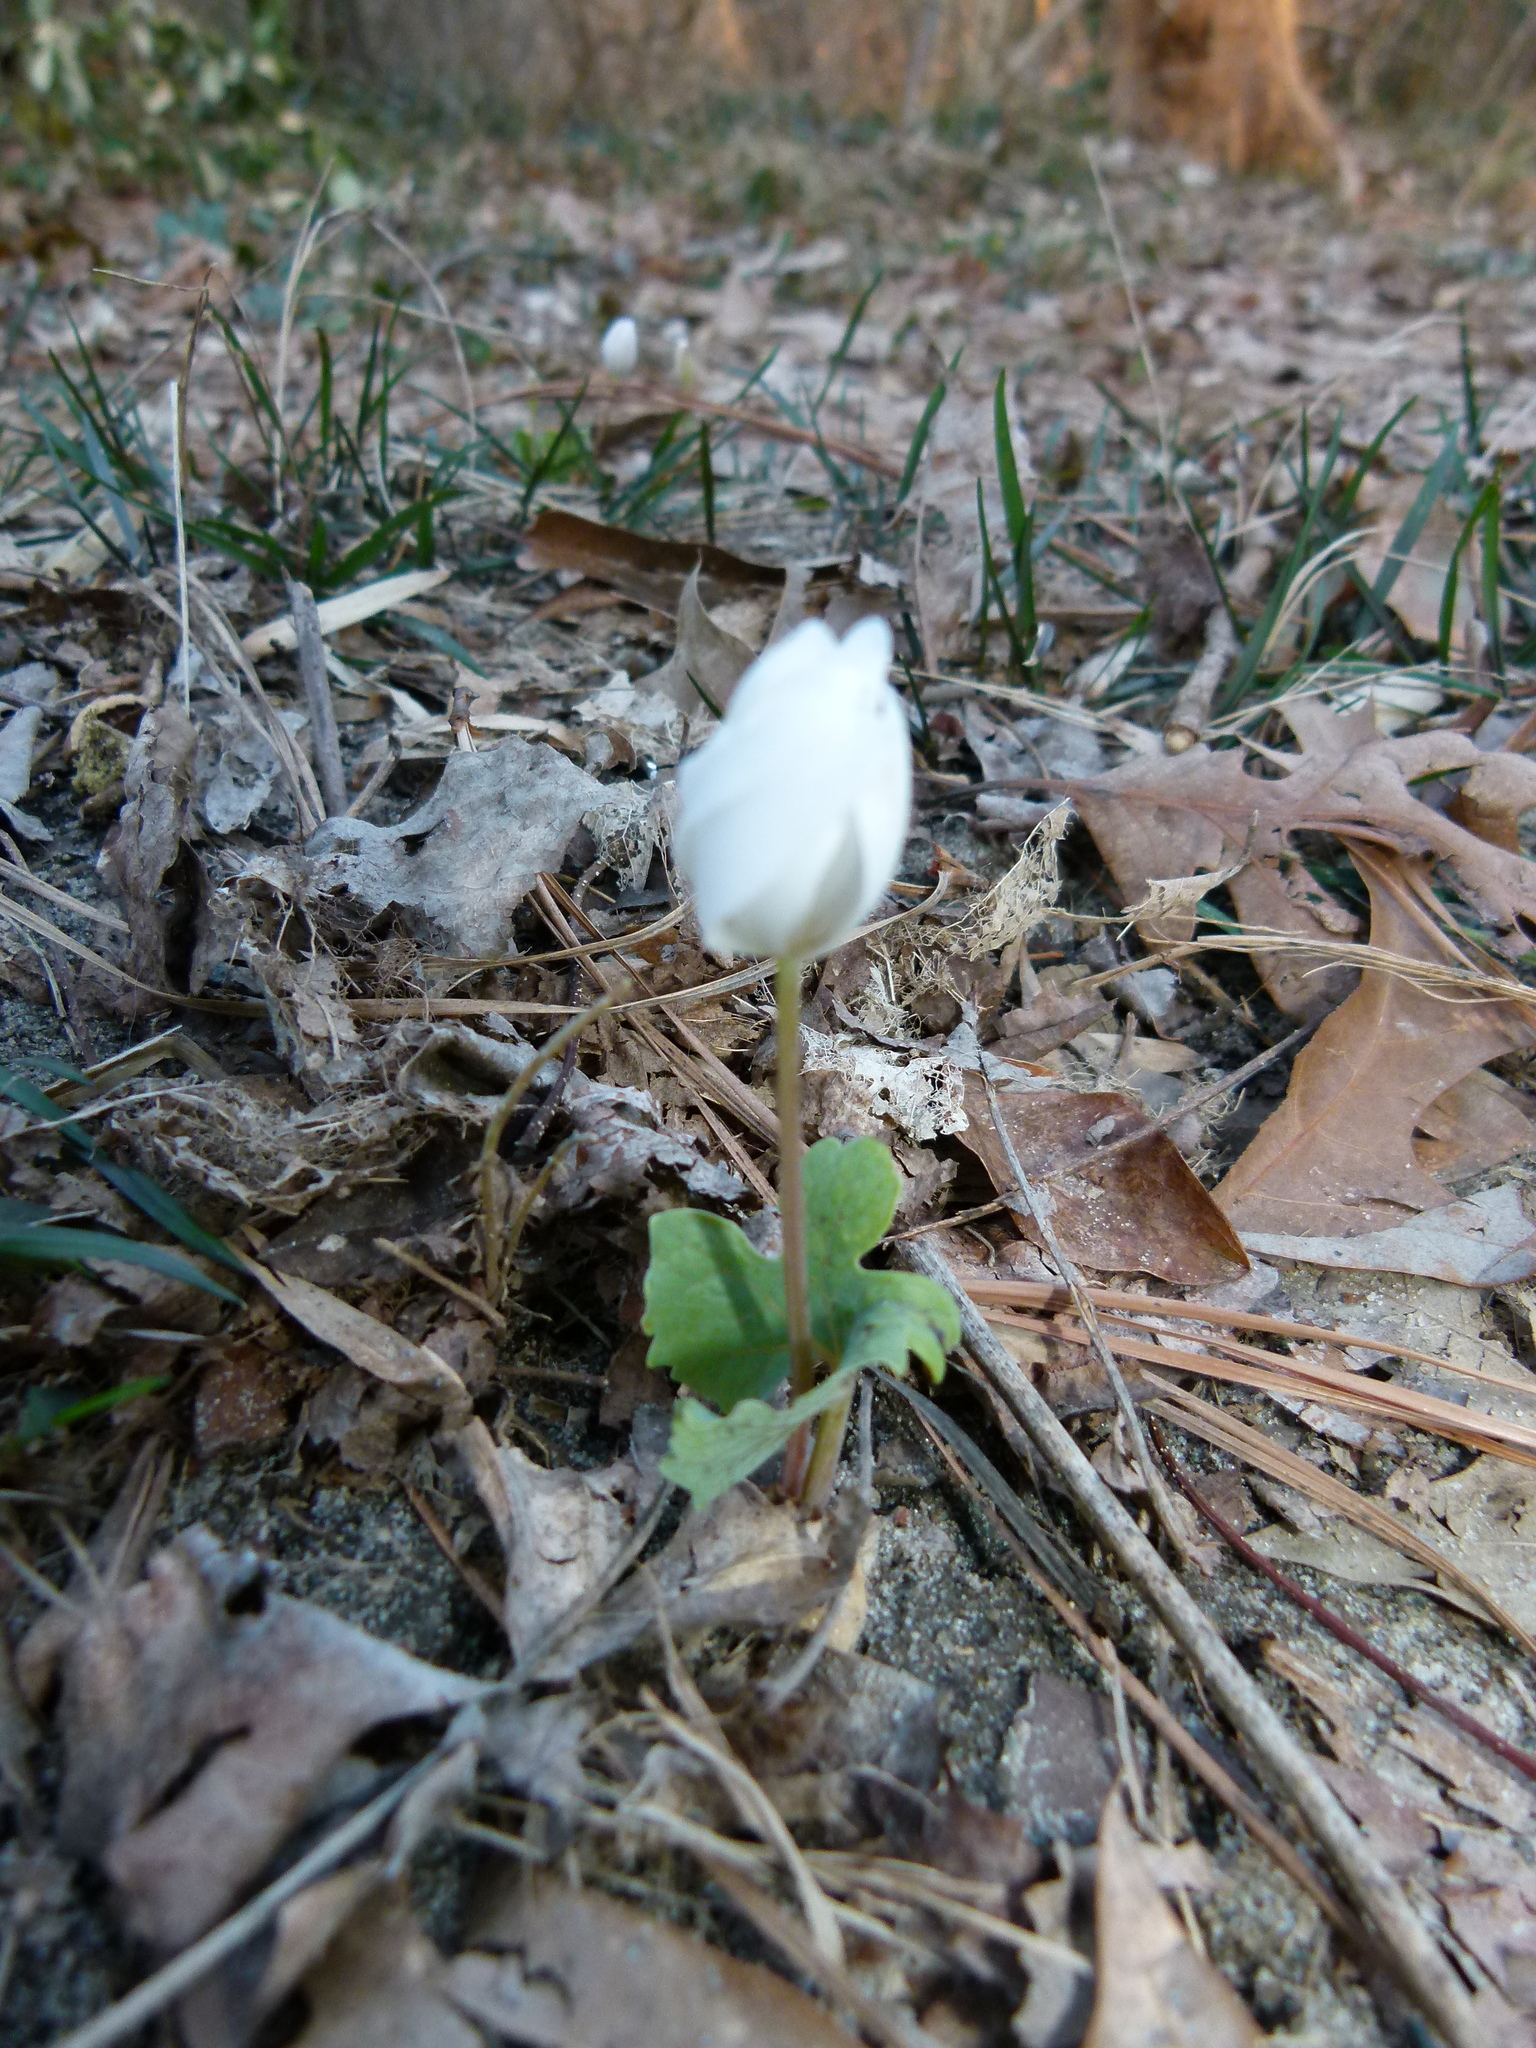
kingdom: Plantae
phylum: Tracheophyta
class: Magnoliopsida
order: Ranunculales
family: Papaveraceae
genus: Sanguinaria
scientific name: Sanguinaria canadensis
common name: Bloodroot
